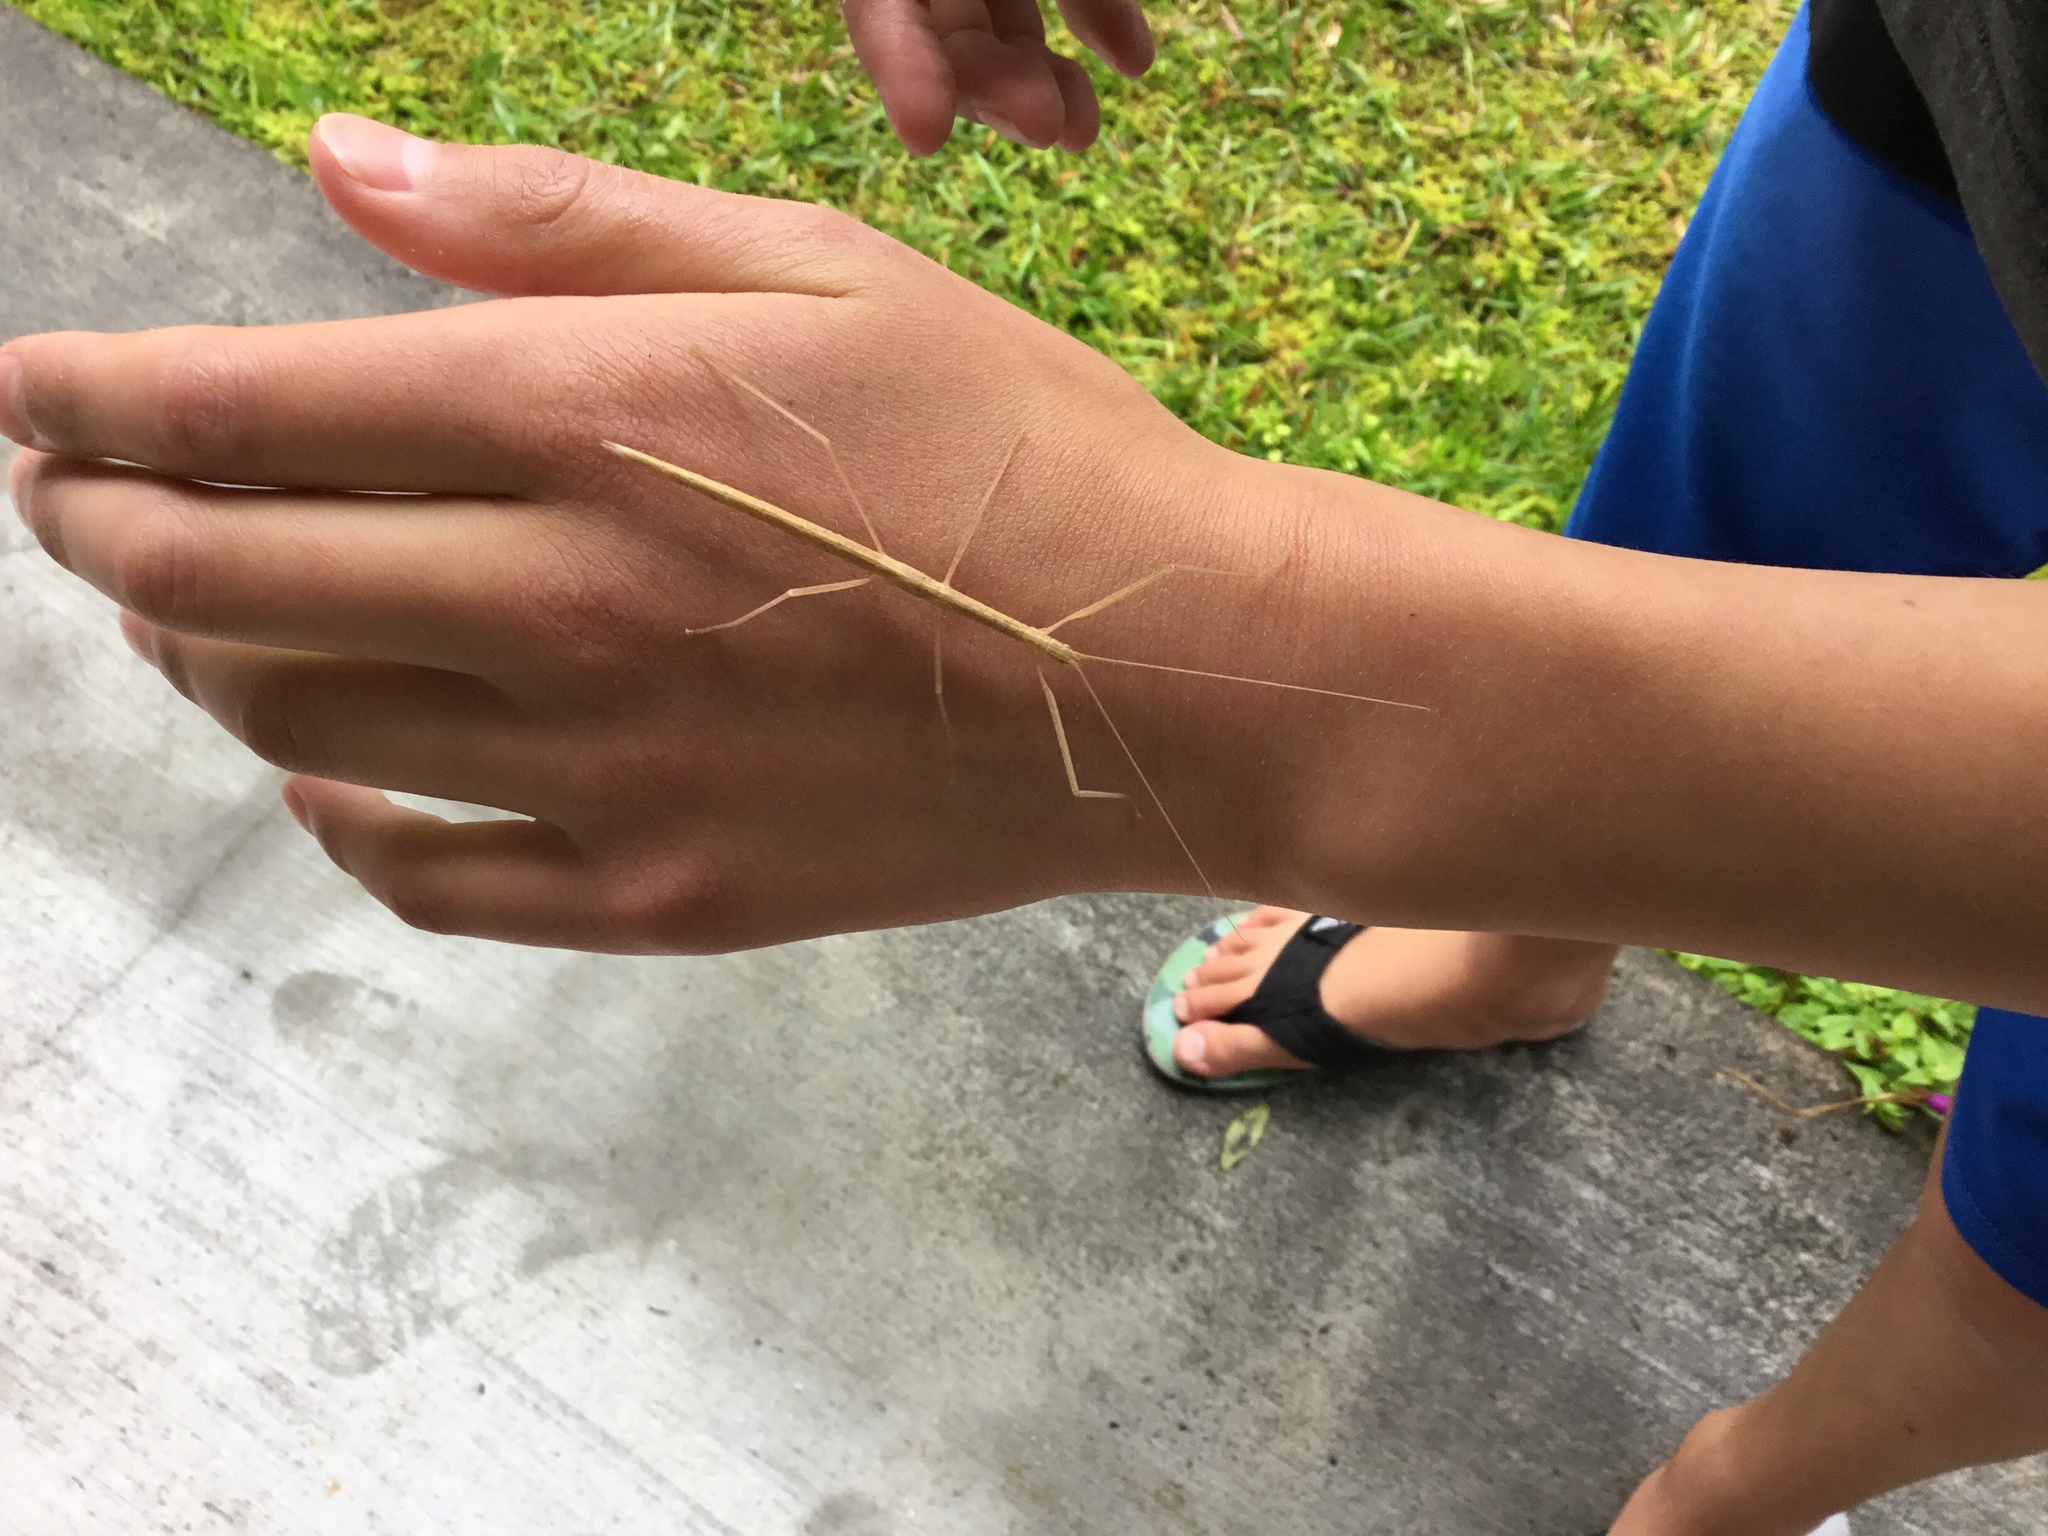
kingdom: Animalia
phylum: Arthropoda
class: Insecta
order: Phasmida
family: Lonchodidae
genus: Sipyloidea
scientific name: Sipyloidea sipylus
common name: Madagascan stick insect
